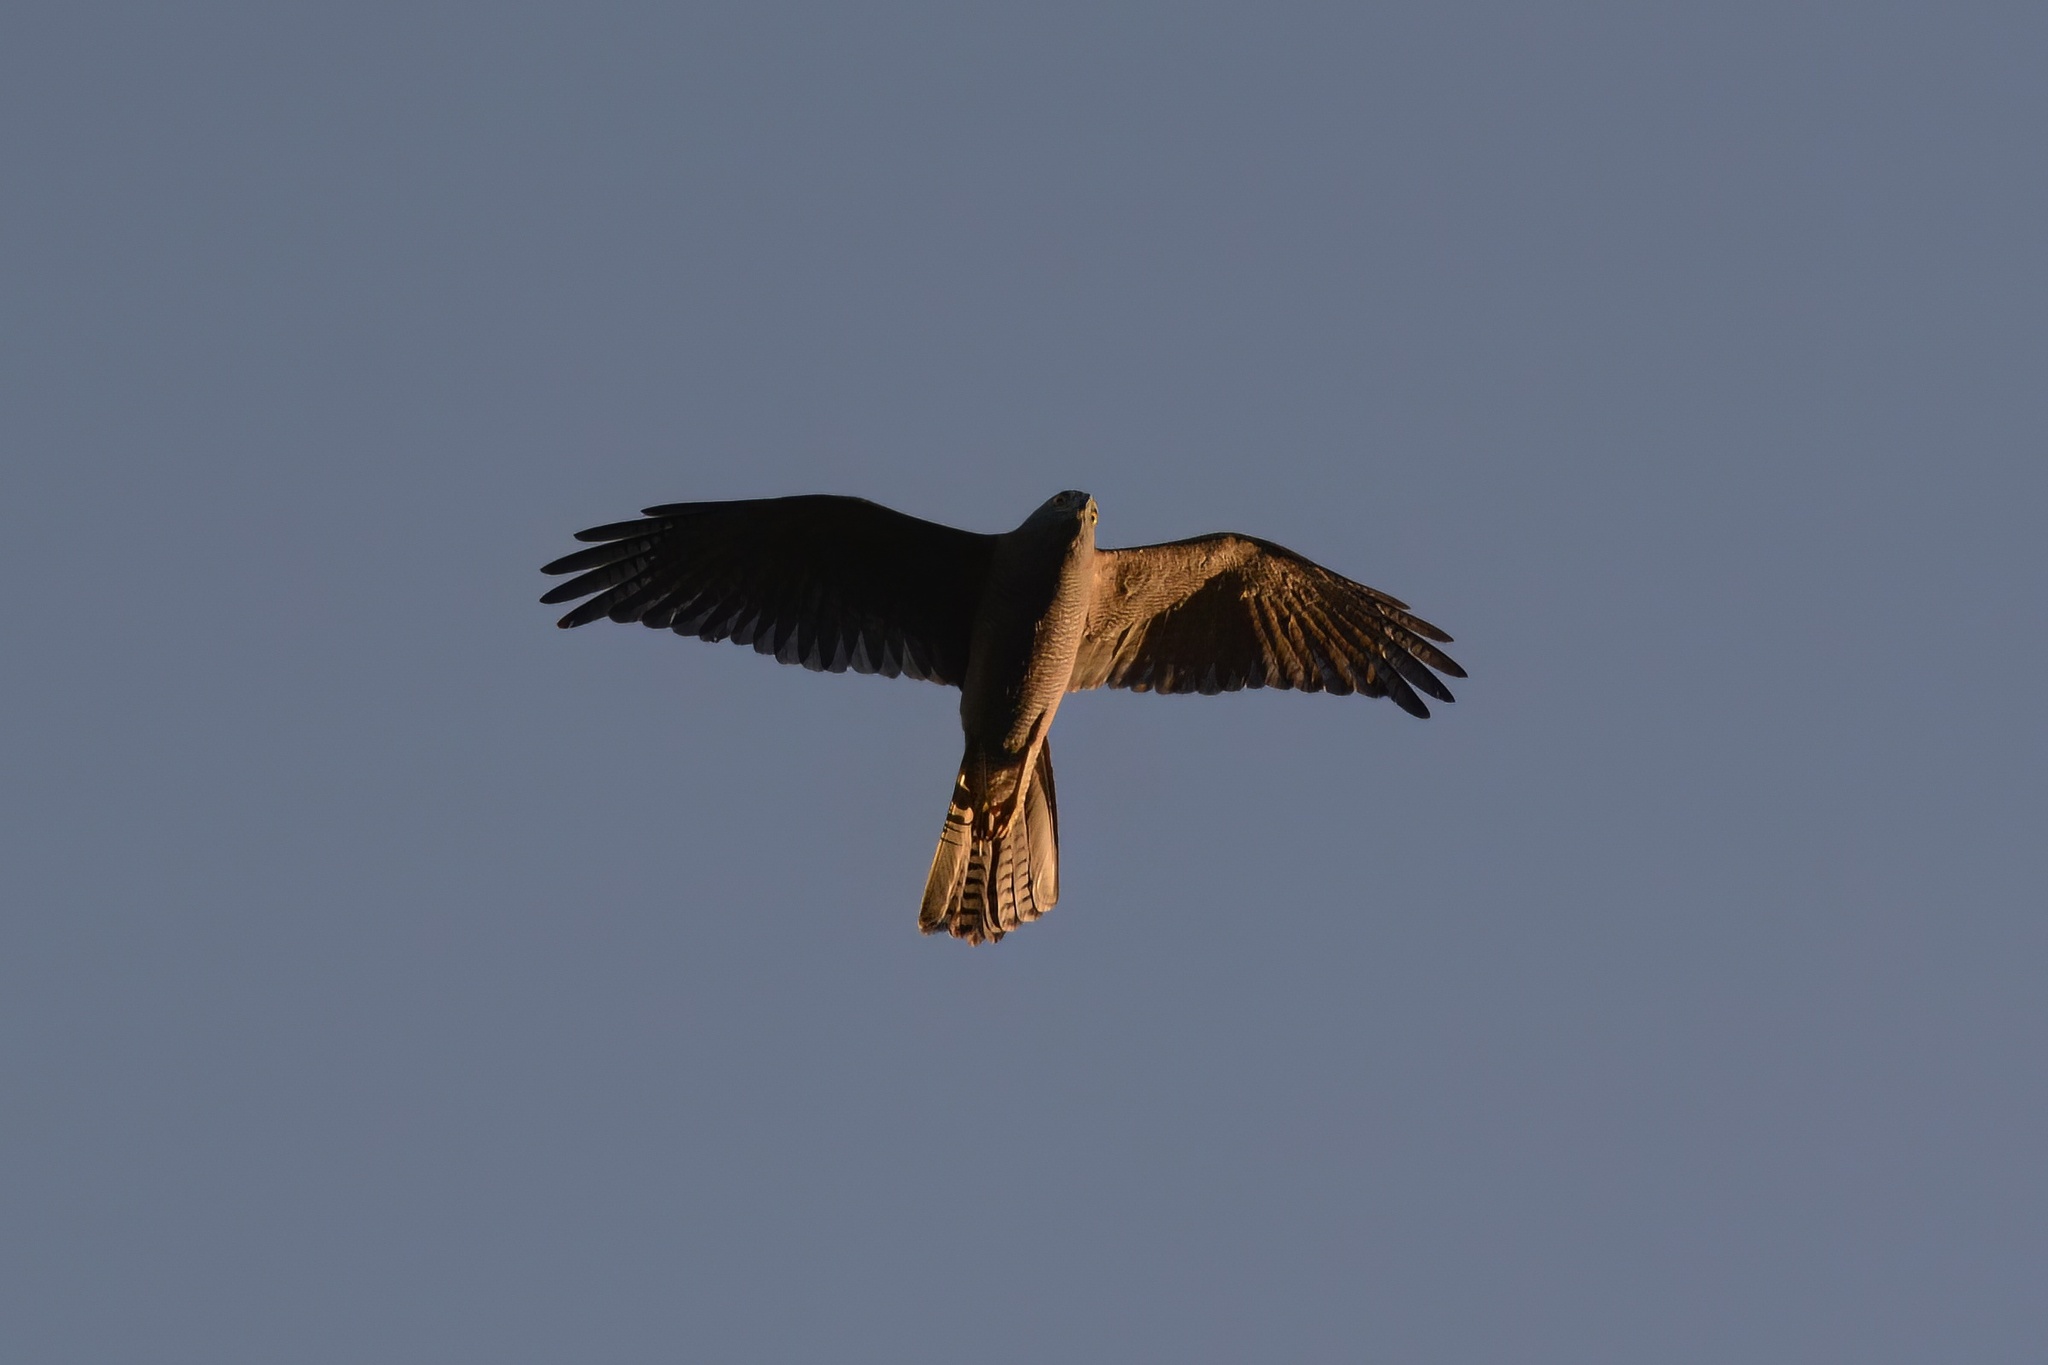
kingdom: Animalia
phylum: Chordata
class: Aves
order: Accipitriformes
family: Accipitridae
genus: Accipiter
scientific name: Accipiter fasciatus
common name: Brown goshawk
